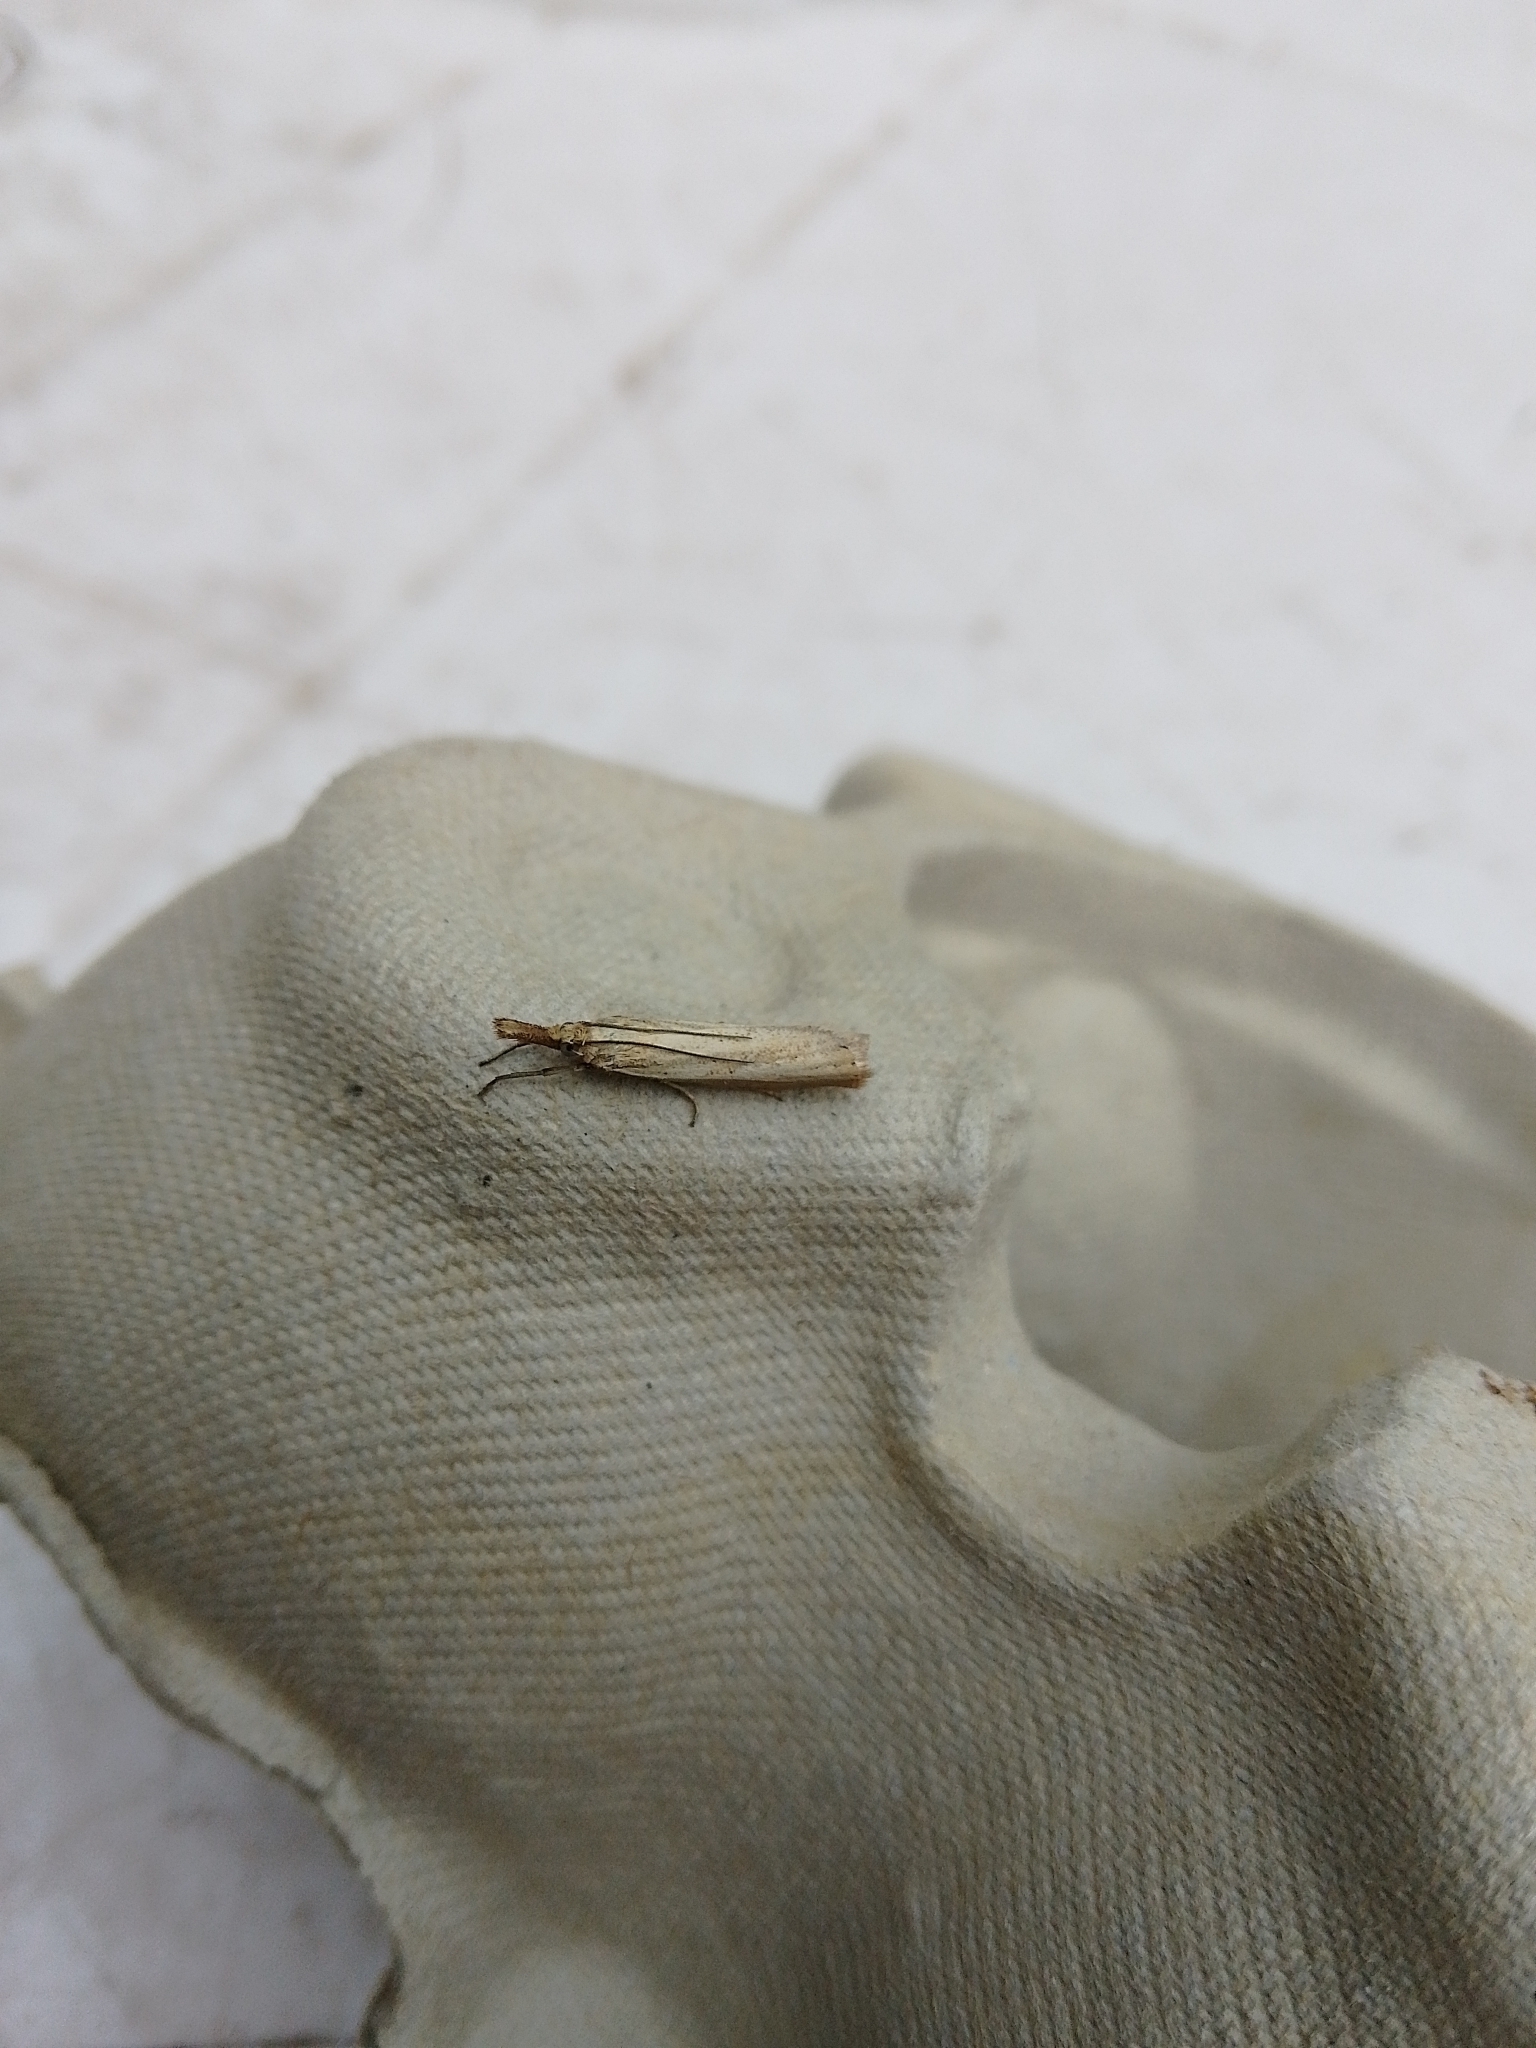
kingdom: Animalia
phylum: Arthropoda
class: Insecta
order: Lepidoptera
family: Crambidae
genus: Agriphila
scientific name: Agriphila straminella
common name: Straw grass-veneer
